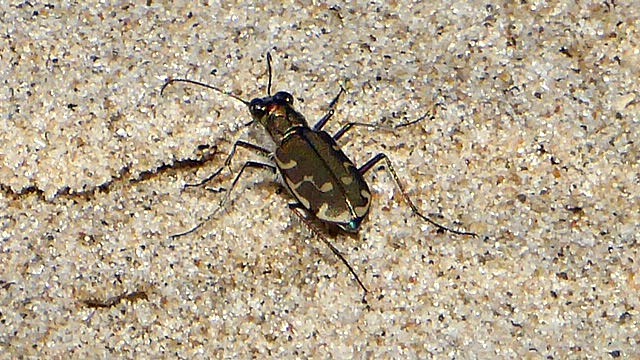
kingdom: Animalia
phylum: Arthropoda
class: Insecta
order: Coleoptera
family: Carabidae
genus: Cicindela
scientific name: Cicindela repanda
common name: Bronzed tiger beetle
